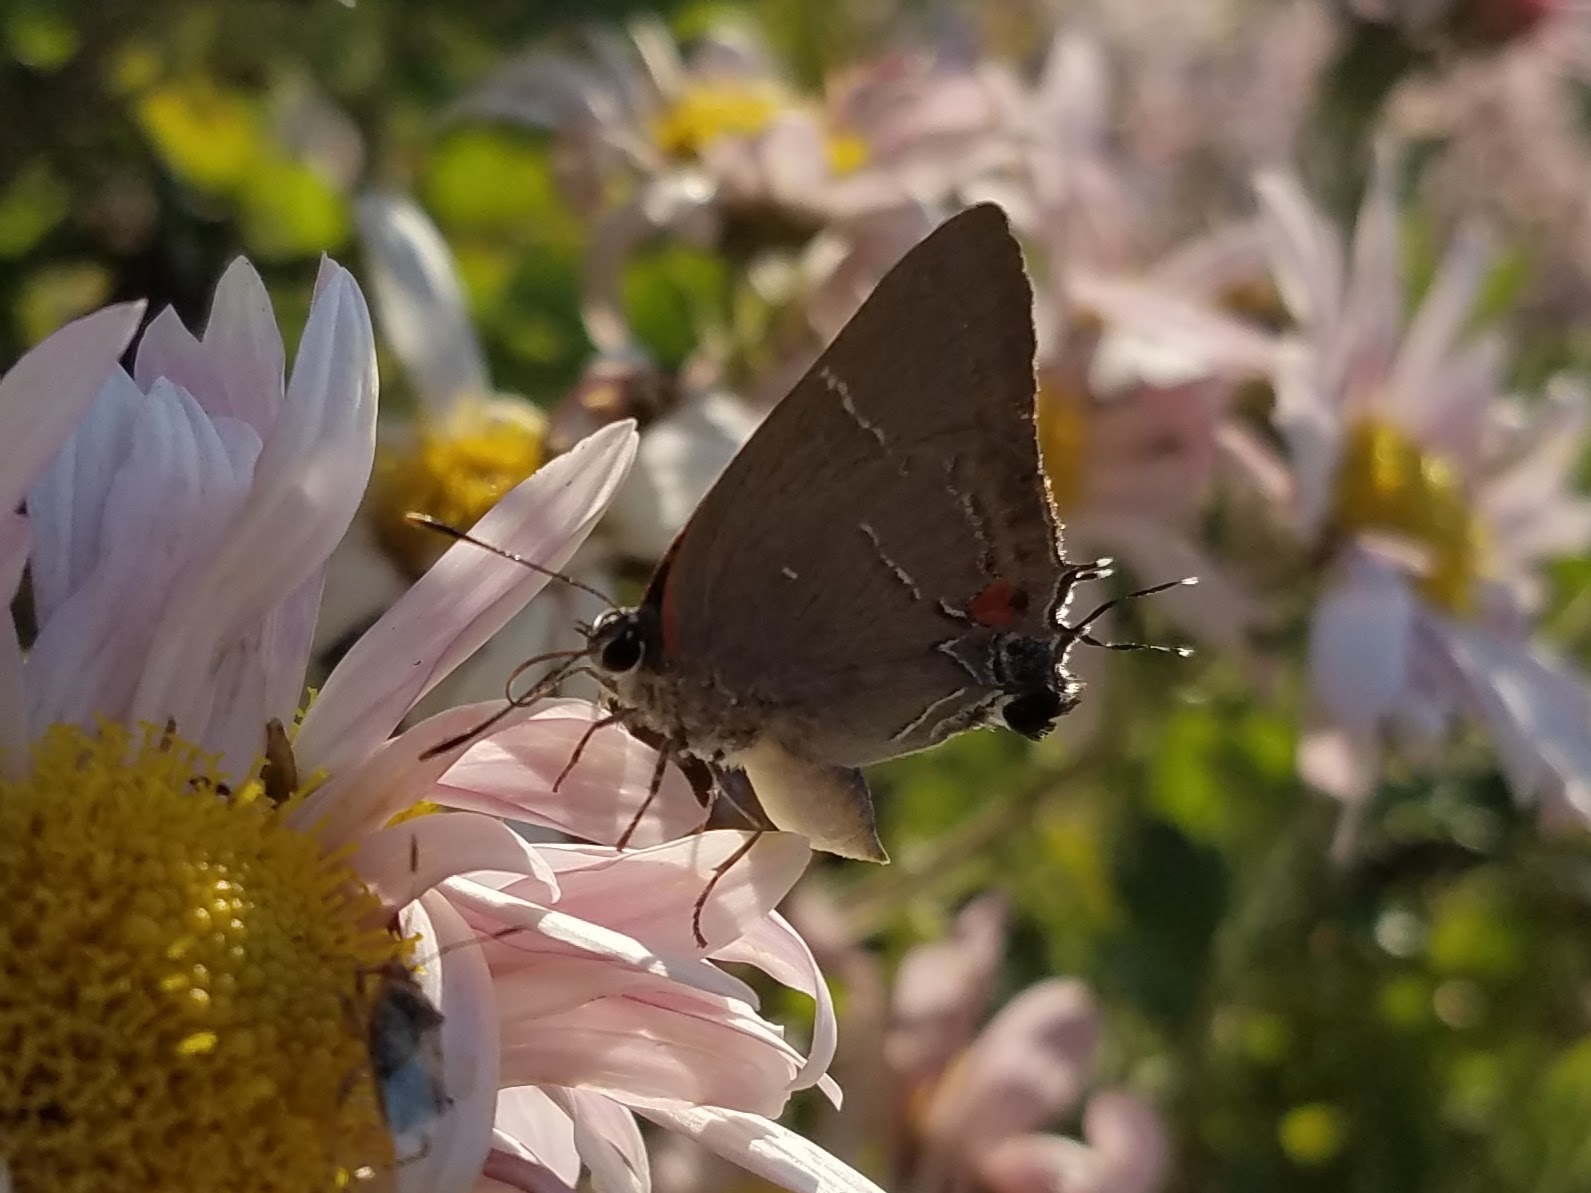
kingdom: Animalia
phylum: Arthropoda
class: Insecta
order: Lepidoptera
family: Lycaenidae
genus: Parrhasius
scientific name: Parrhasius m-album
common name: White m hairstreak
